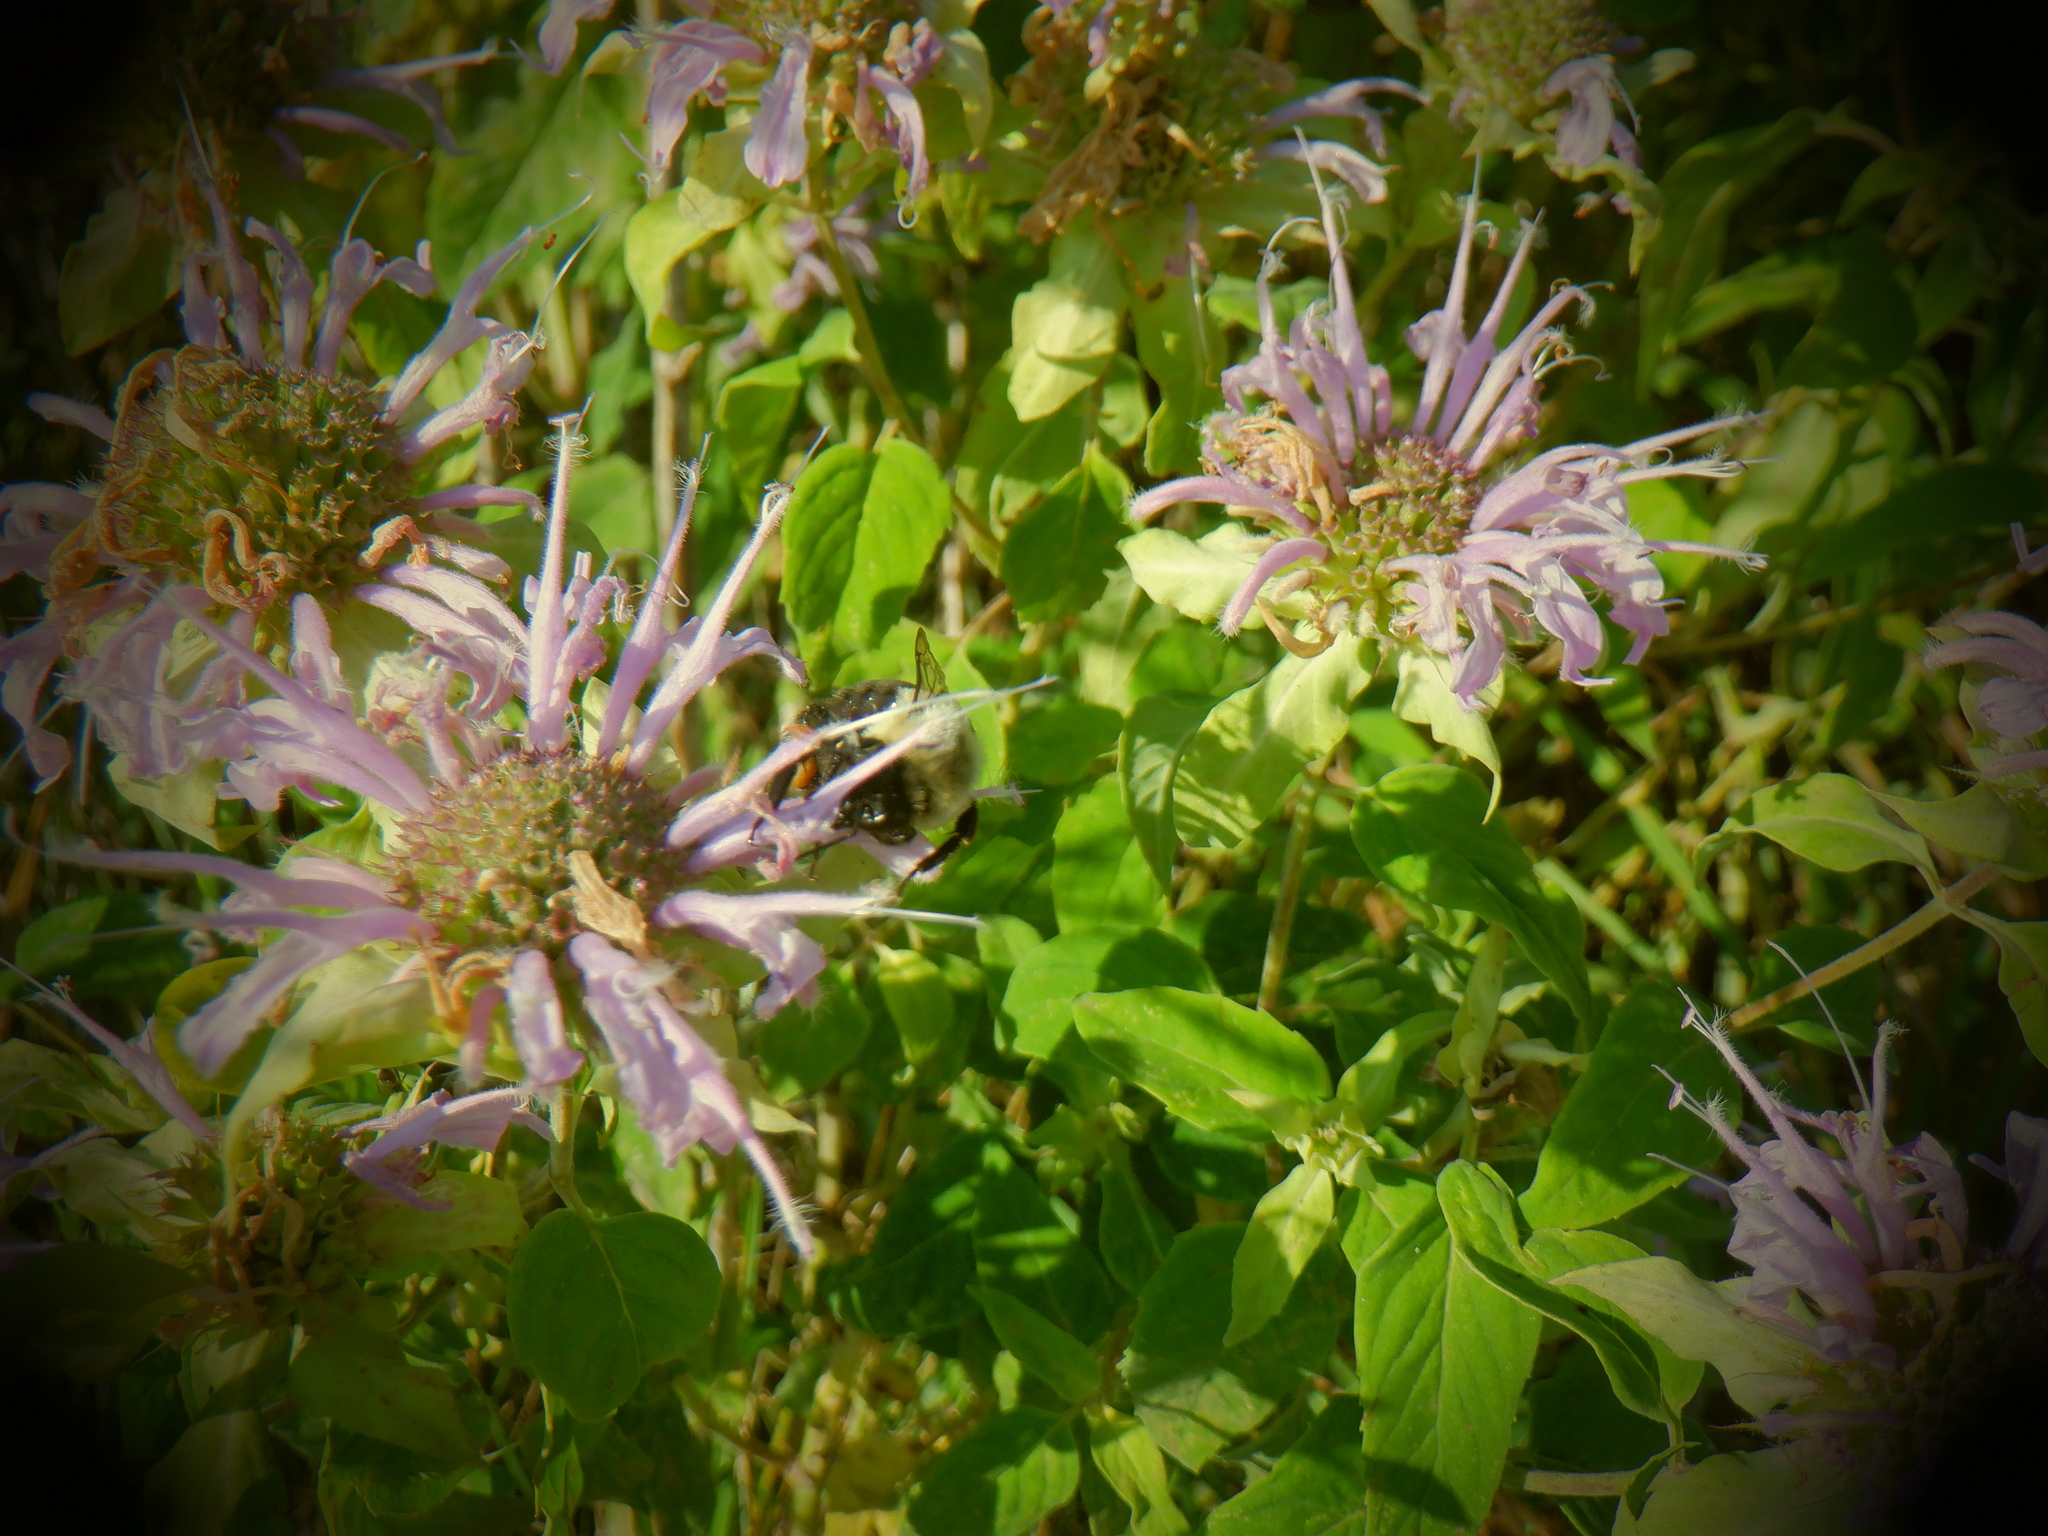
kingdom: Animalia
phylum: Arthropoda
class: Insecta
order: Hymenoptera
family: Apidae
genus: Bombus
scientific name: Bombus impatiens
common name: Common eastern bumble bee
